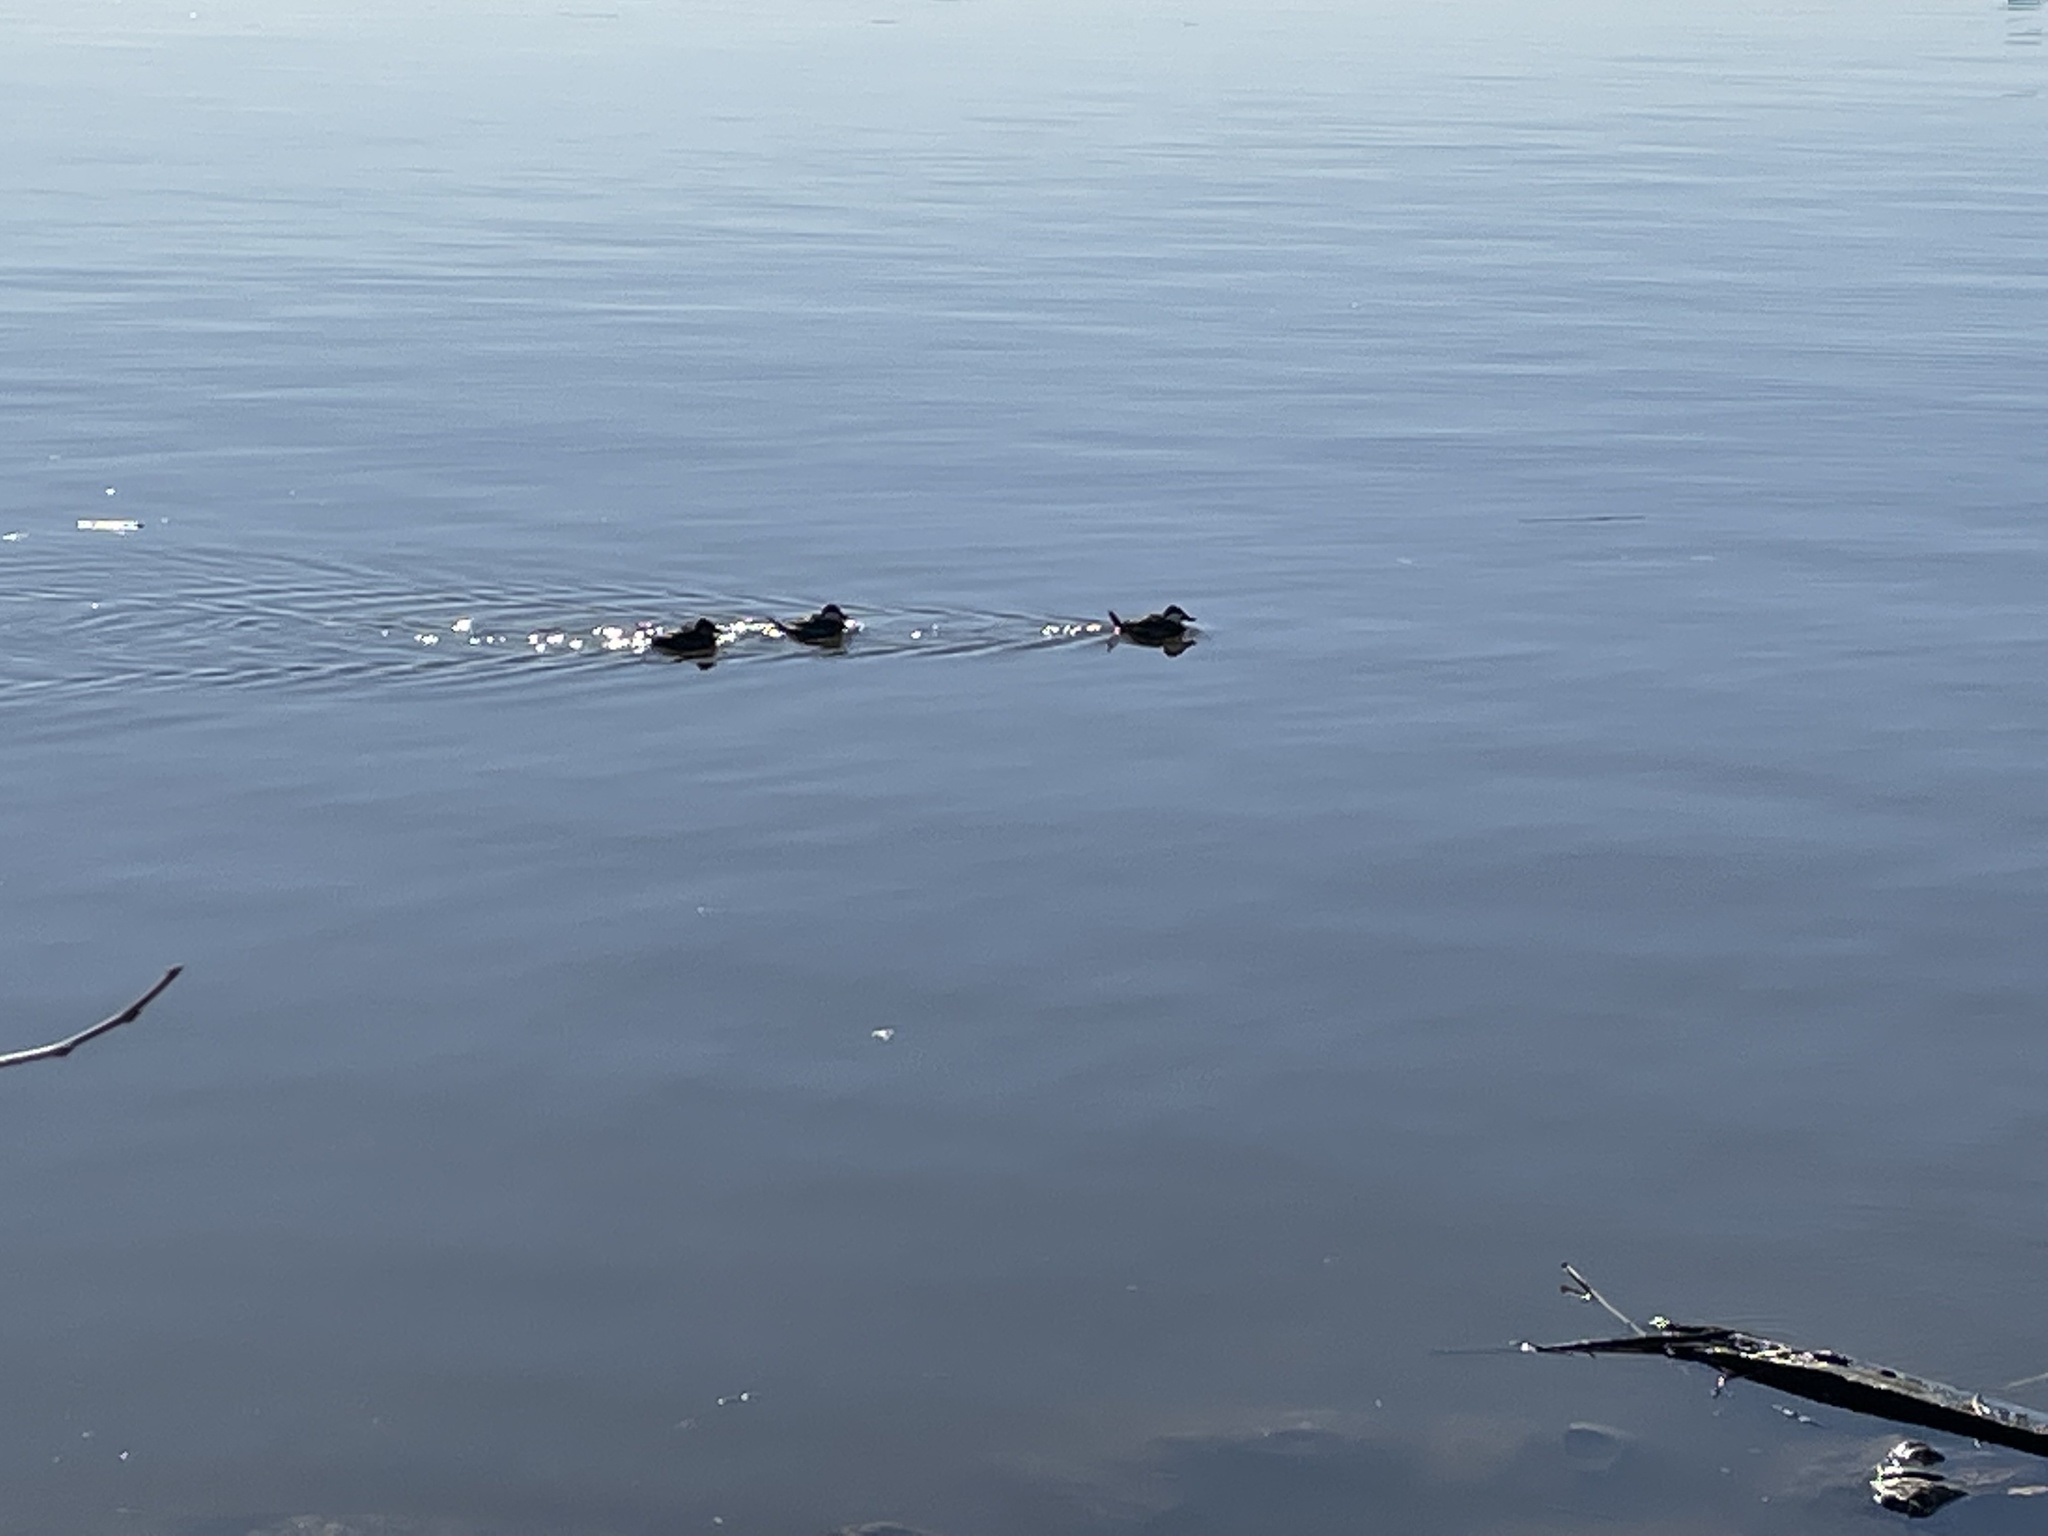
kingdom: Animalia
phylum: Chordata
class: Aves
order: Anseriformes
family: Anatidae
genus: Oxyura
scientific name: Oxyura jamaicensis
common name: Ruddy duck
